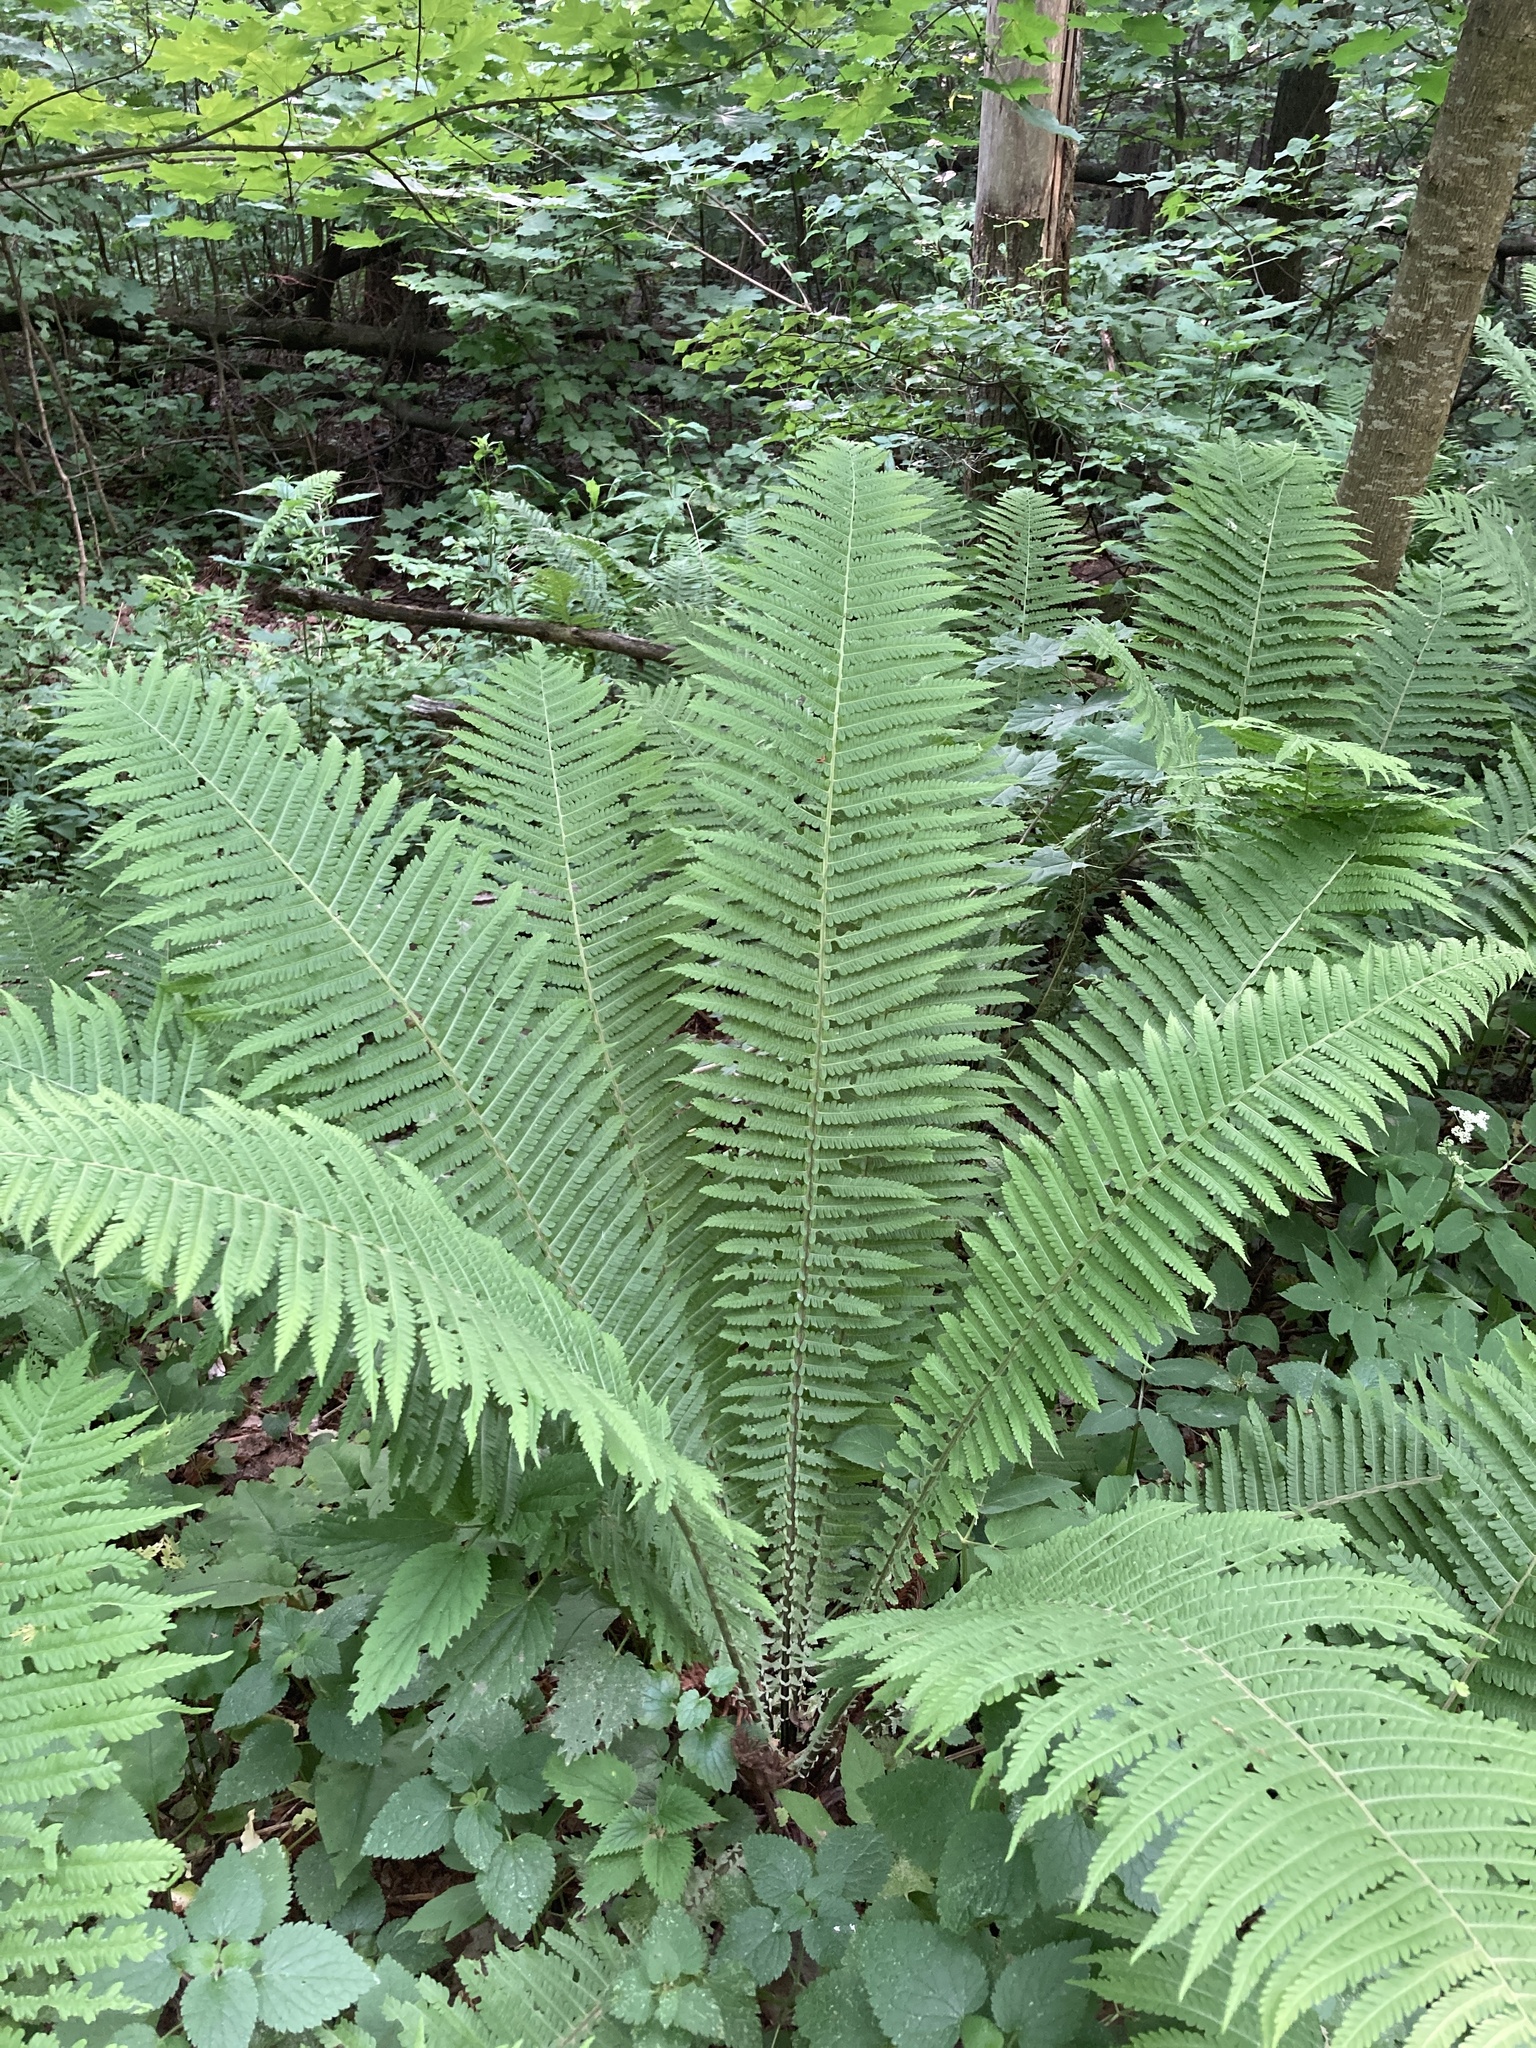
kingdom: Plantae
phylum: Tracheophyta
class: Polypodiopsida
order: Polypodiales
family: Onocleaceae
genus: Matteuccia
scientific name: Matteuccia struthiopteris
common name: Ostrich fern
